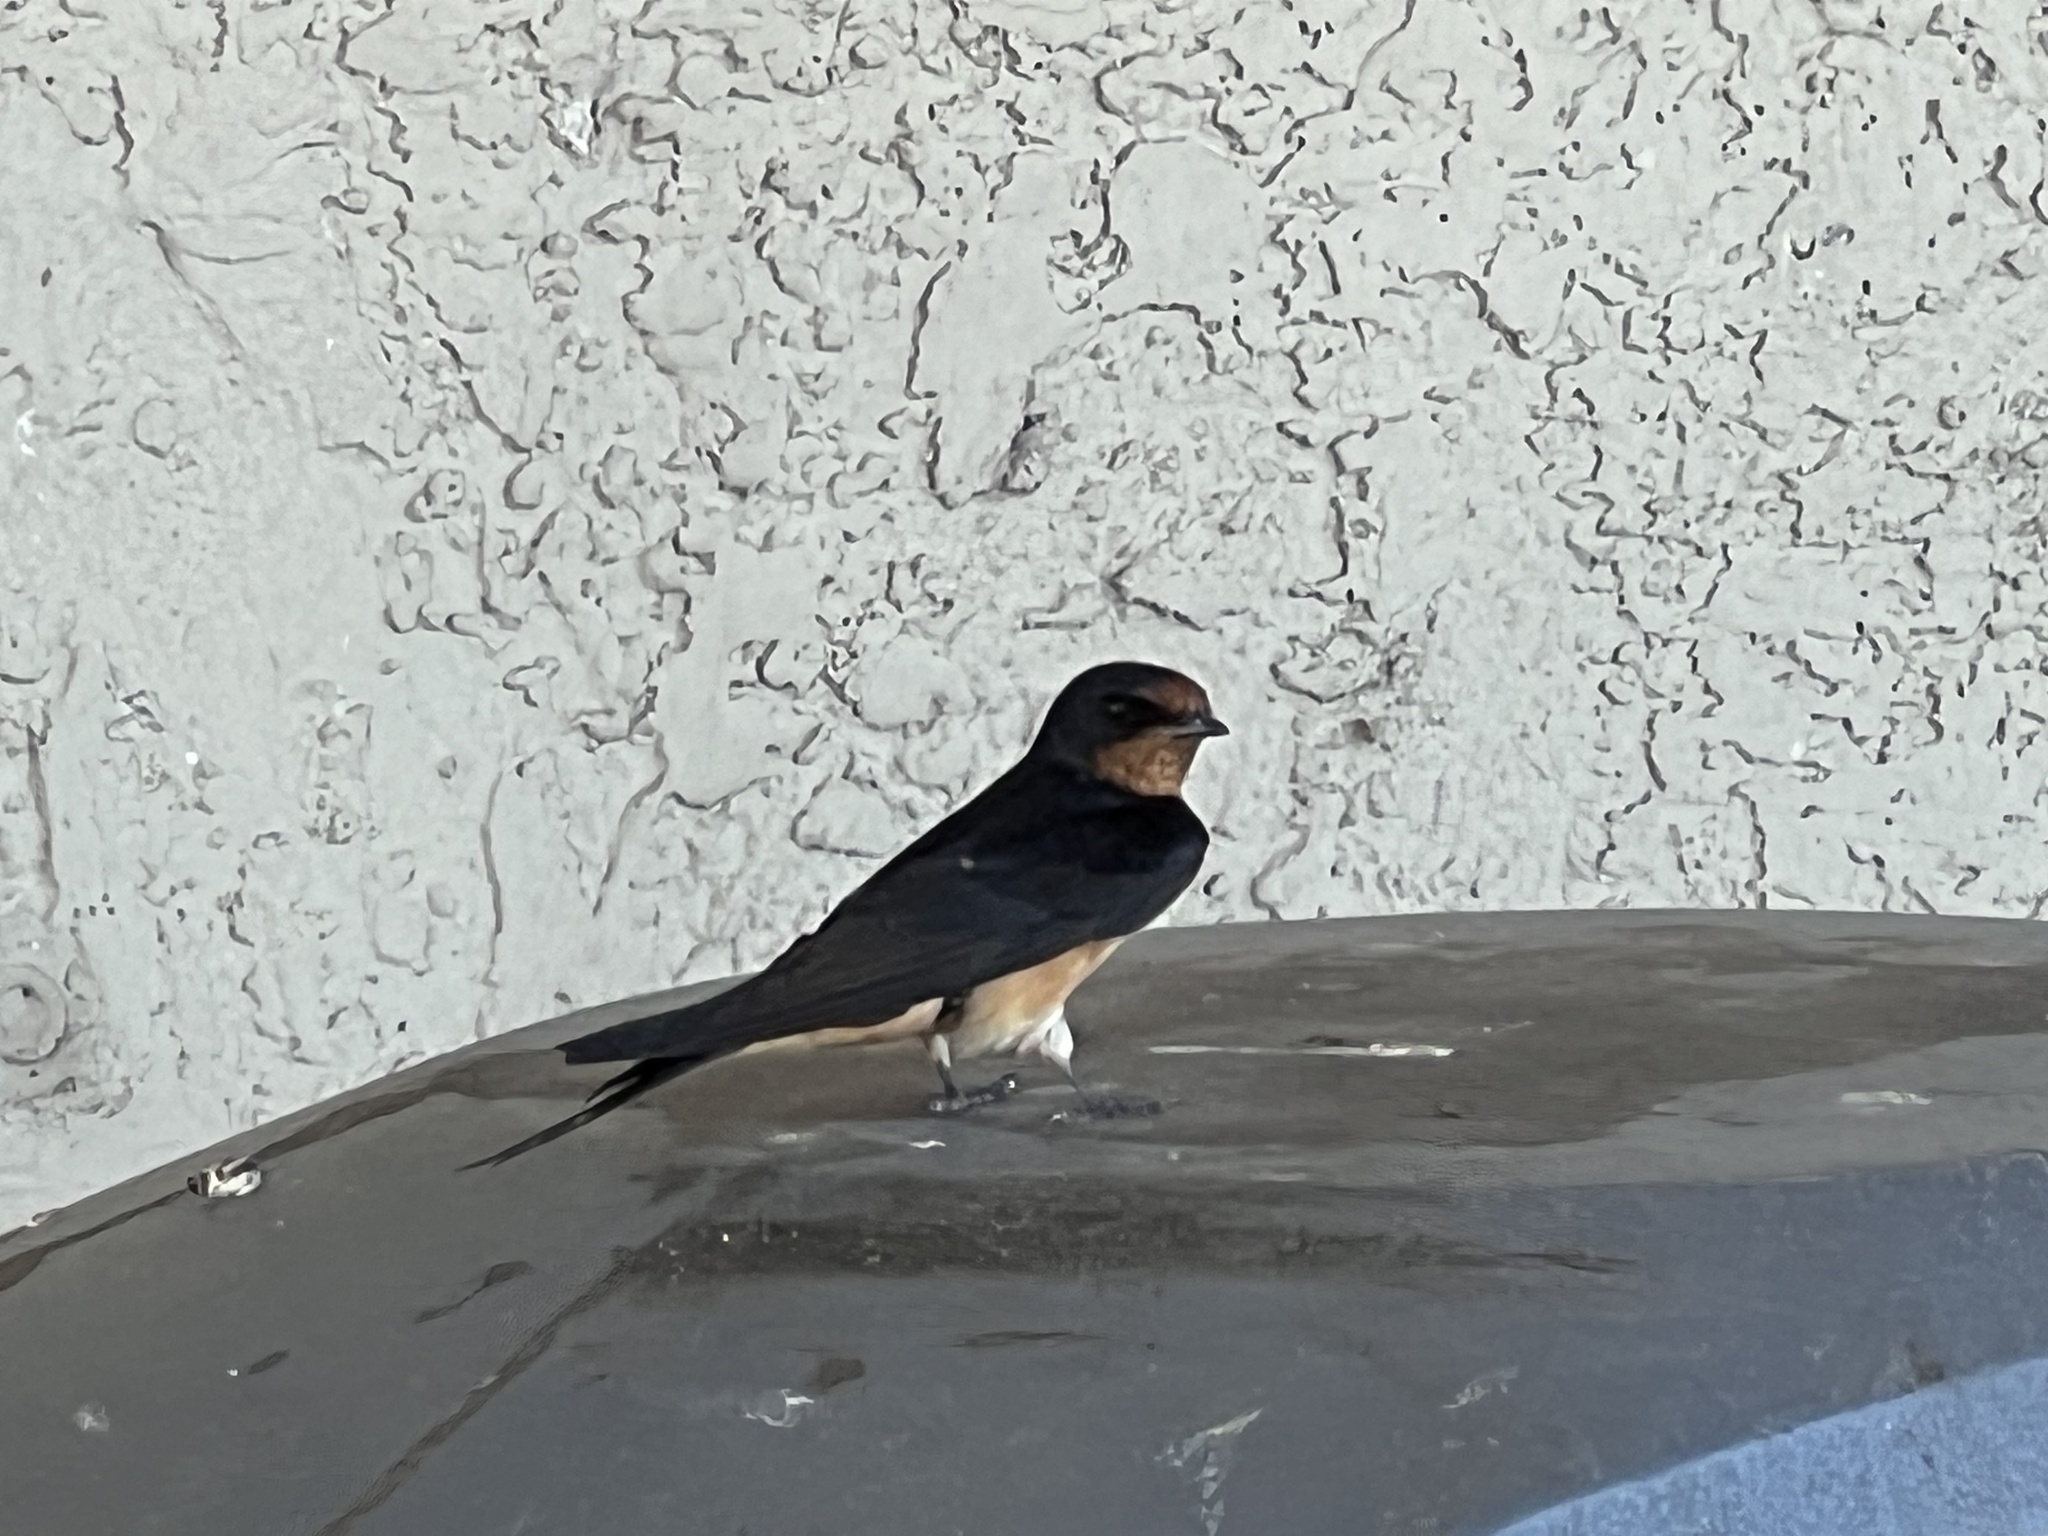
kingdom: Animalia
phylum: Chordata
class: Aves
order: Passeriformes
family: Hirundinidae
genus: Hirundo
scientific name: Hirundo rustica
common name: Barn swallow
